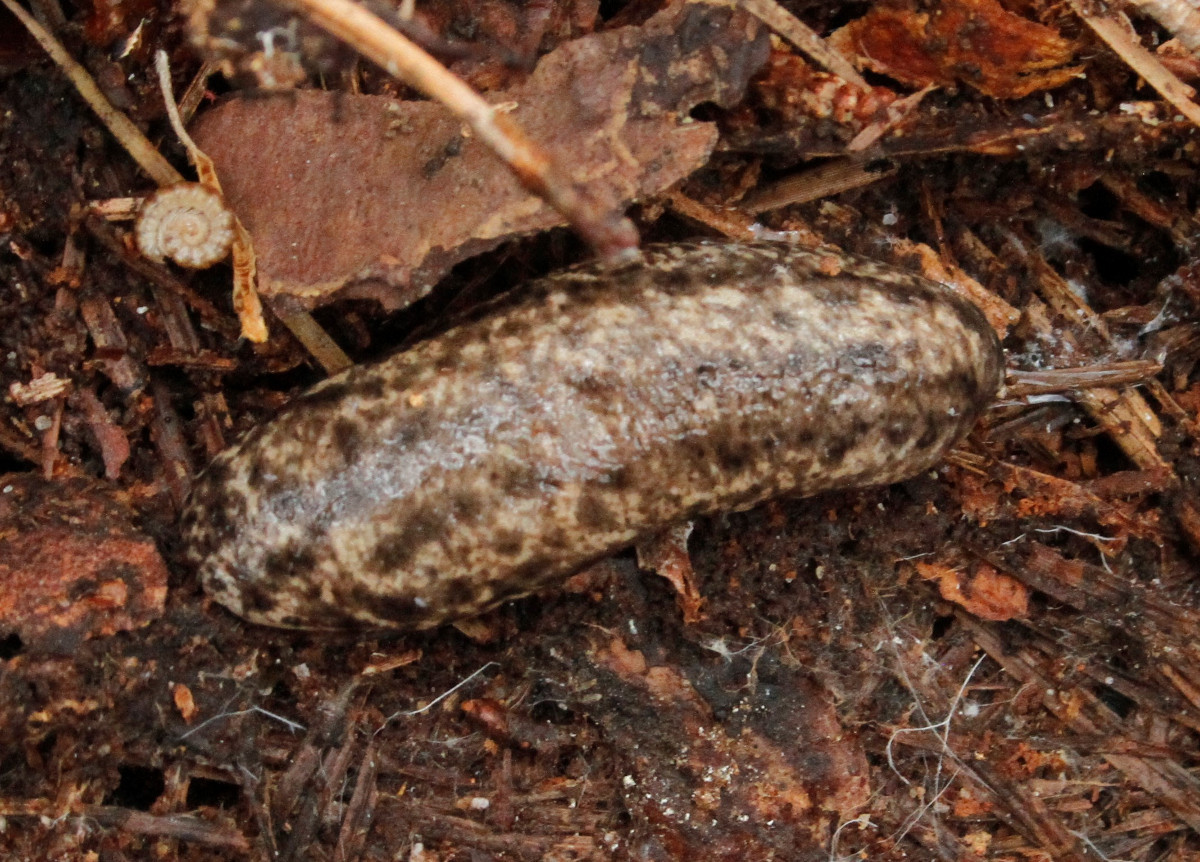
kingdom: Animalia
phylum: Mollusca
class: Gastropoda
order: Stylommatophora
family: Philomycidae
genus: Philomycus
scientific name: Philomycus togatus
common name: Toga mantleslug
